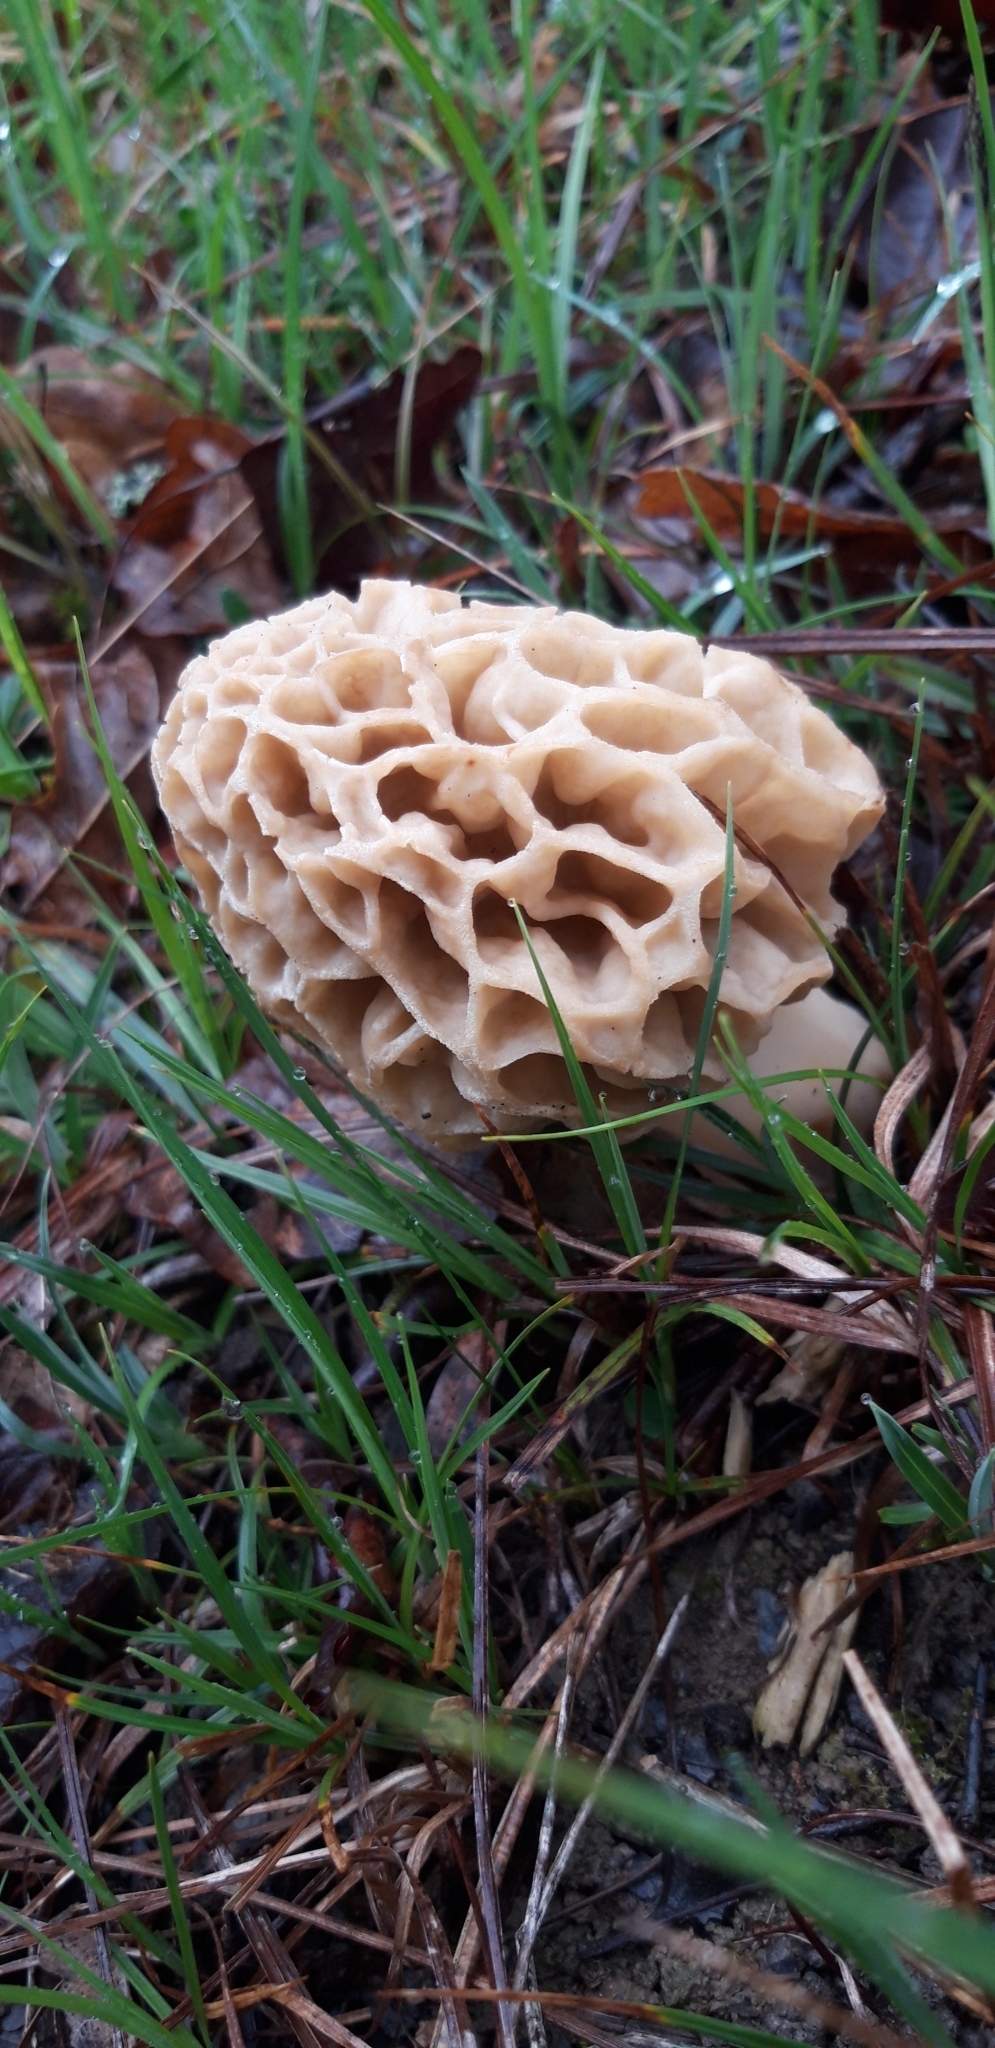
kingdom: Fungi
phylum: Ascomycota
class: Pezizomycetes
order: Pezizales
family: Morchellaceae
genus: Morchella
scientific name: Morchella esculenta
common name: Morel
